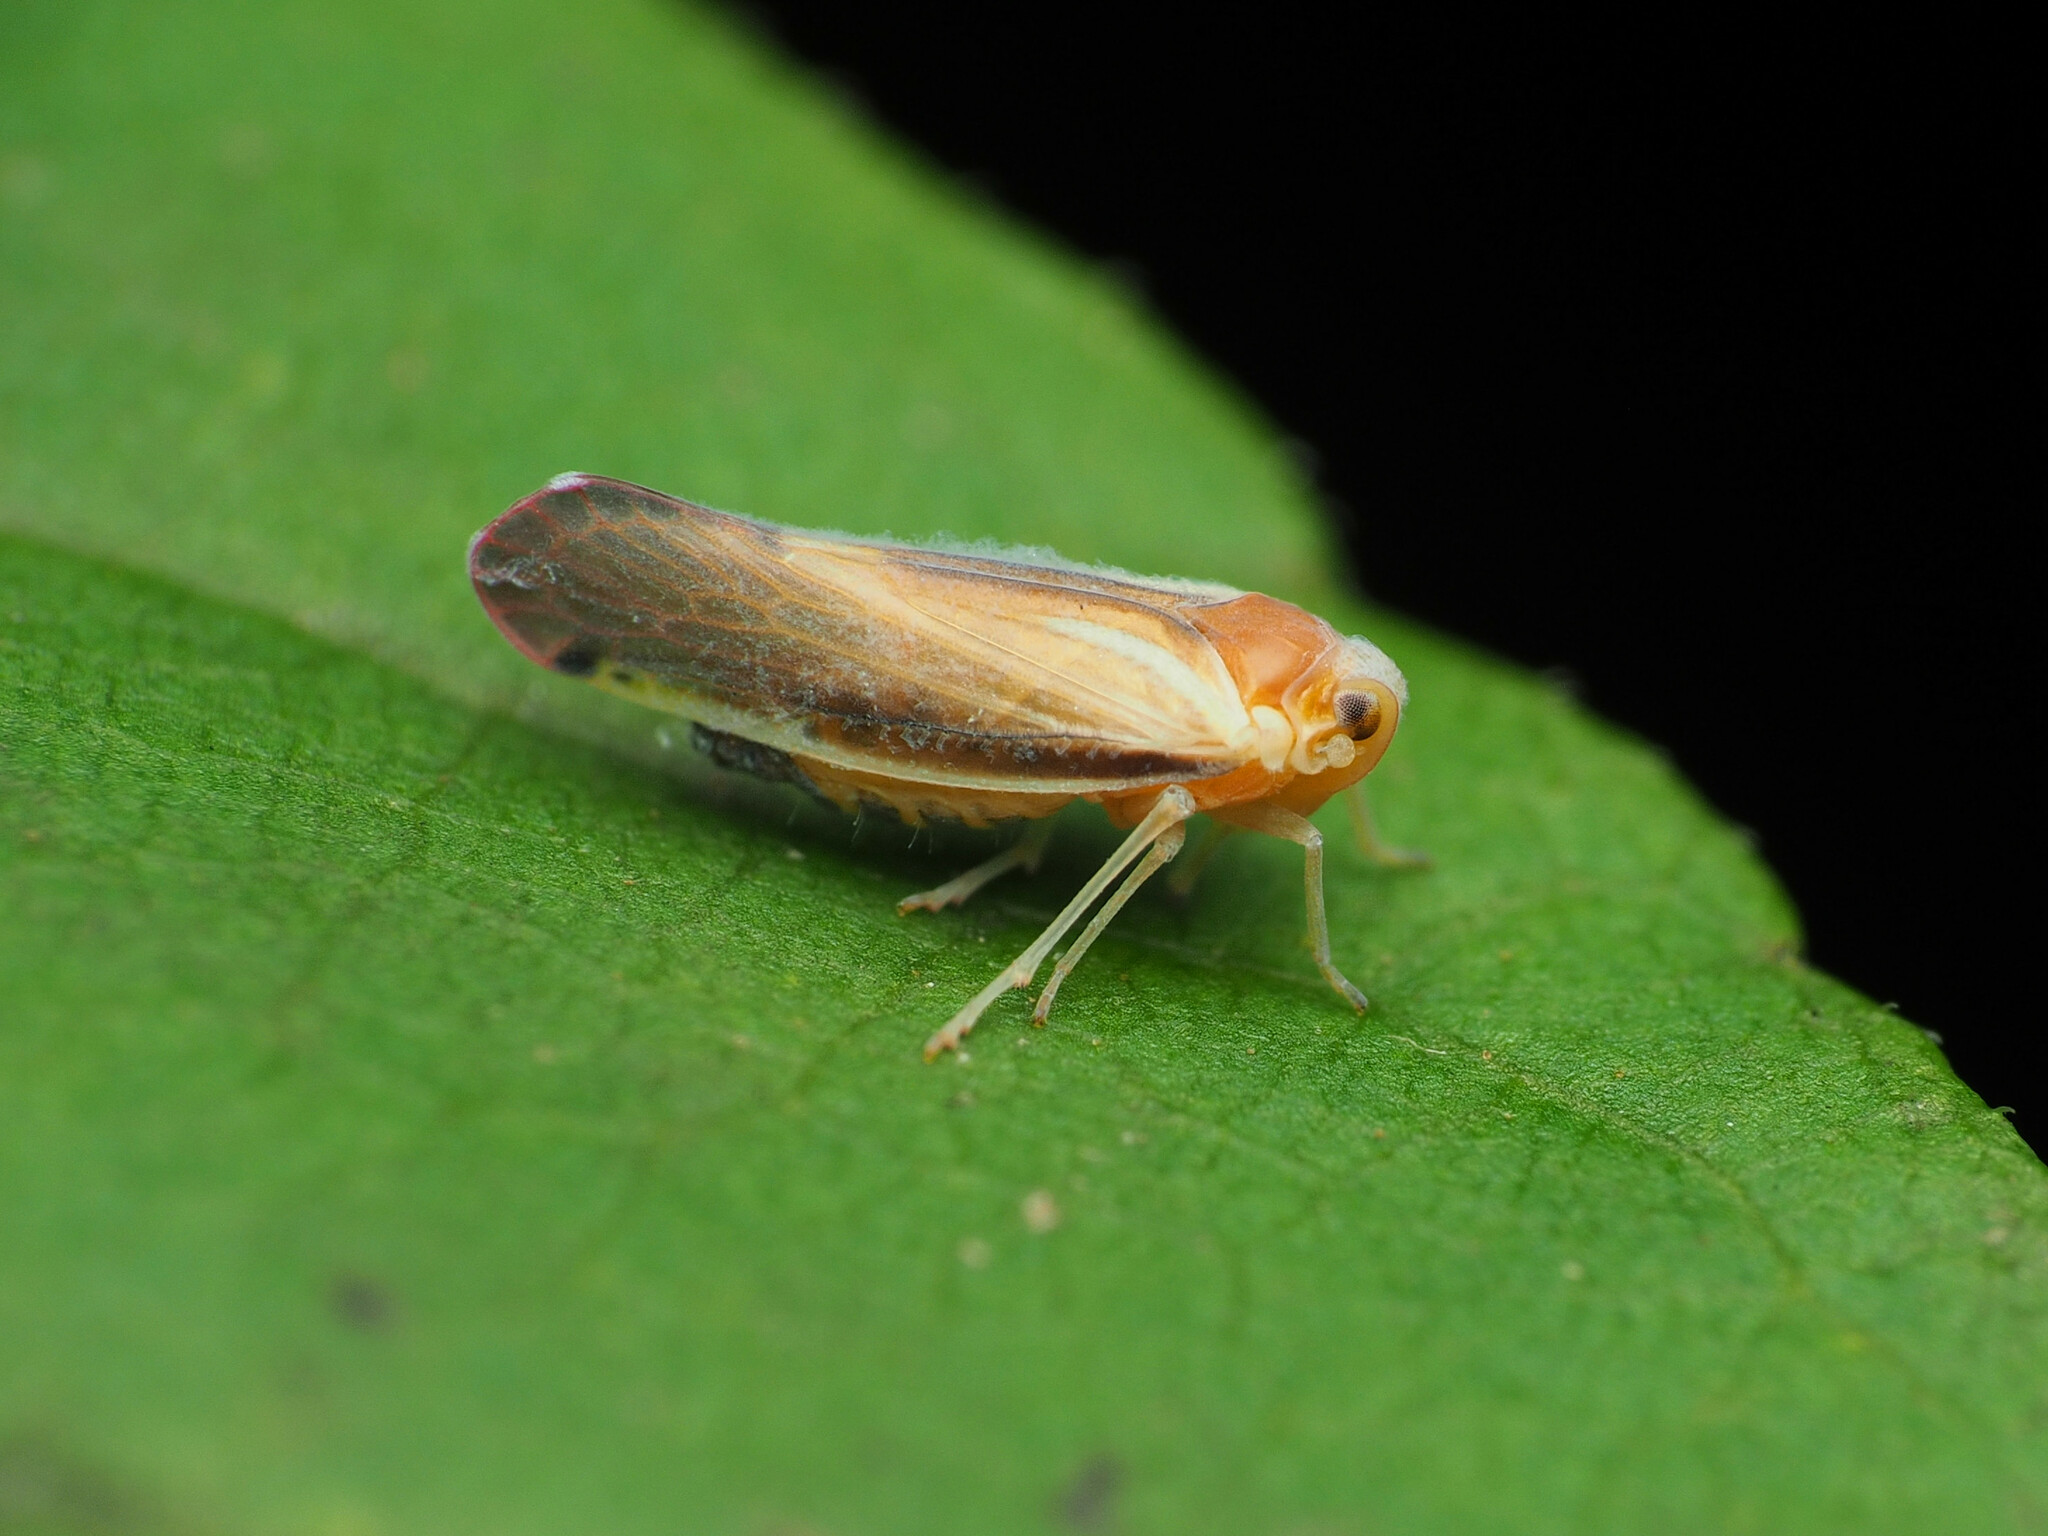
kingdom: Animalia
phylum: Arthropoda
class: Insecta
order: Hemiptera
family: Derbidae
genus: Omolicna
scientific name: Omolicna uhleri
